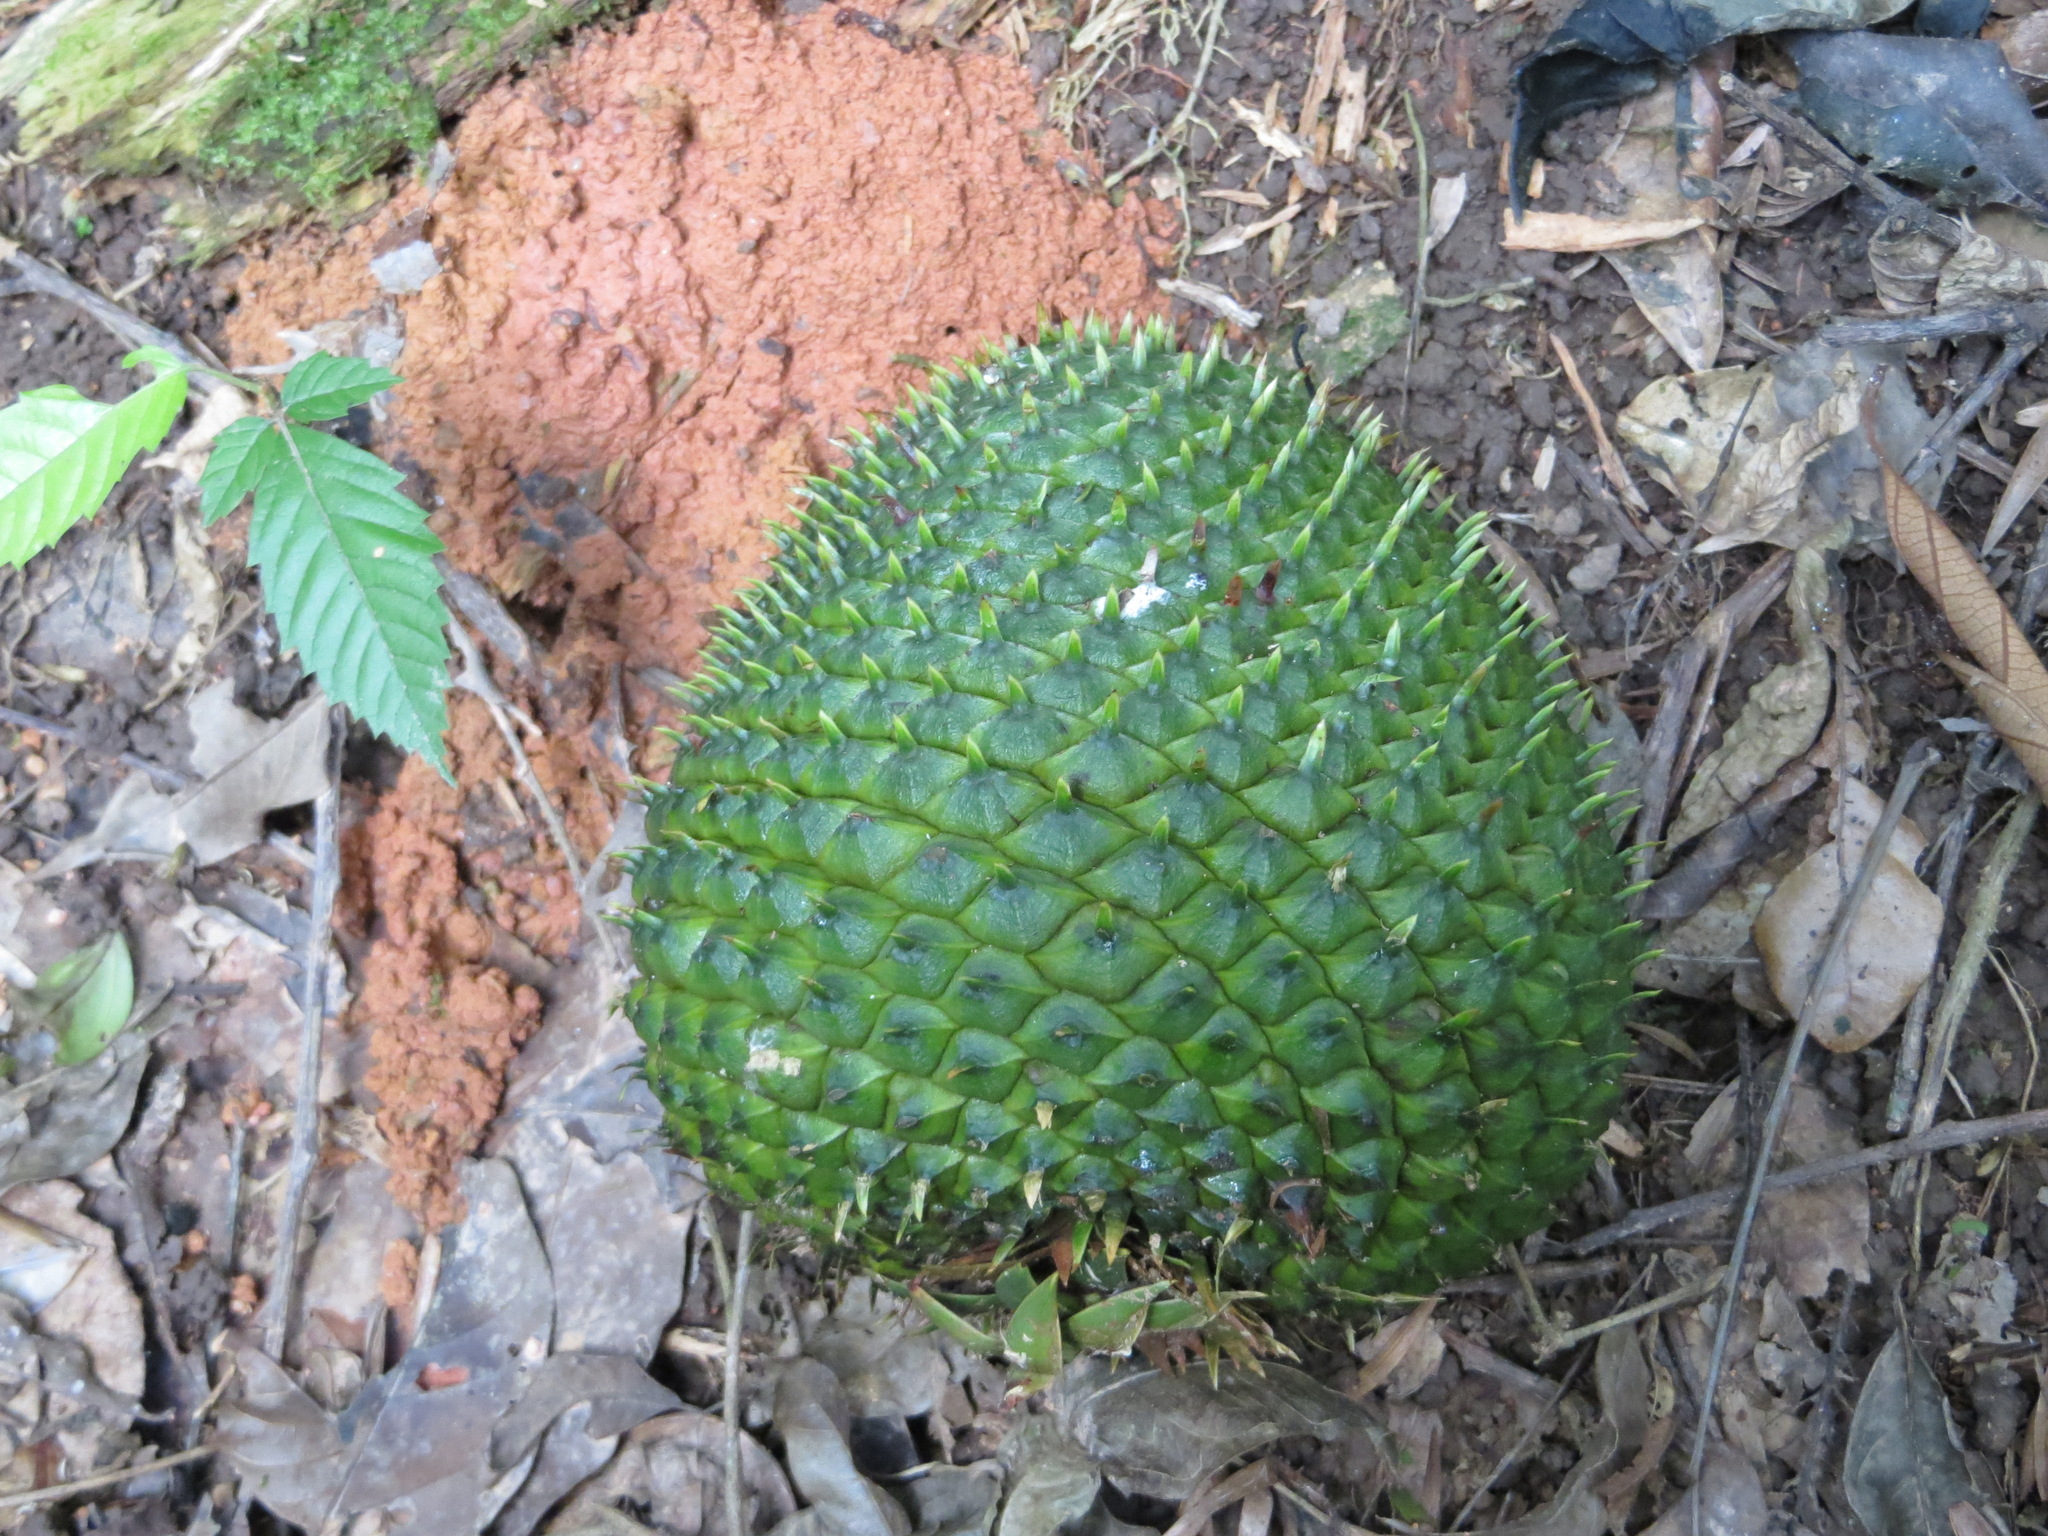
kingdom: Plantae
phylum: Tracheophyta
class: Pinopsida
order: Pinales
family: Araucariaceae
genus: Araucaria
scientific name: Araucaria angustifolia
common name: Candelabra tree
